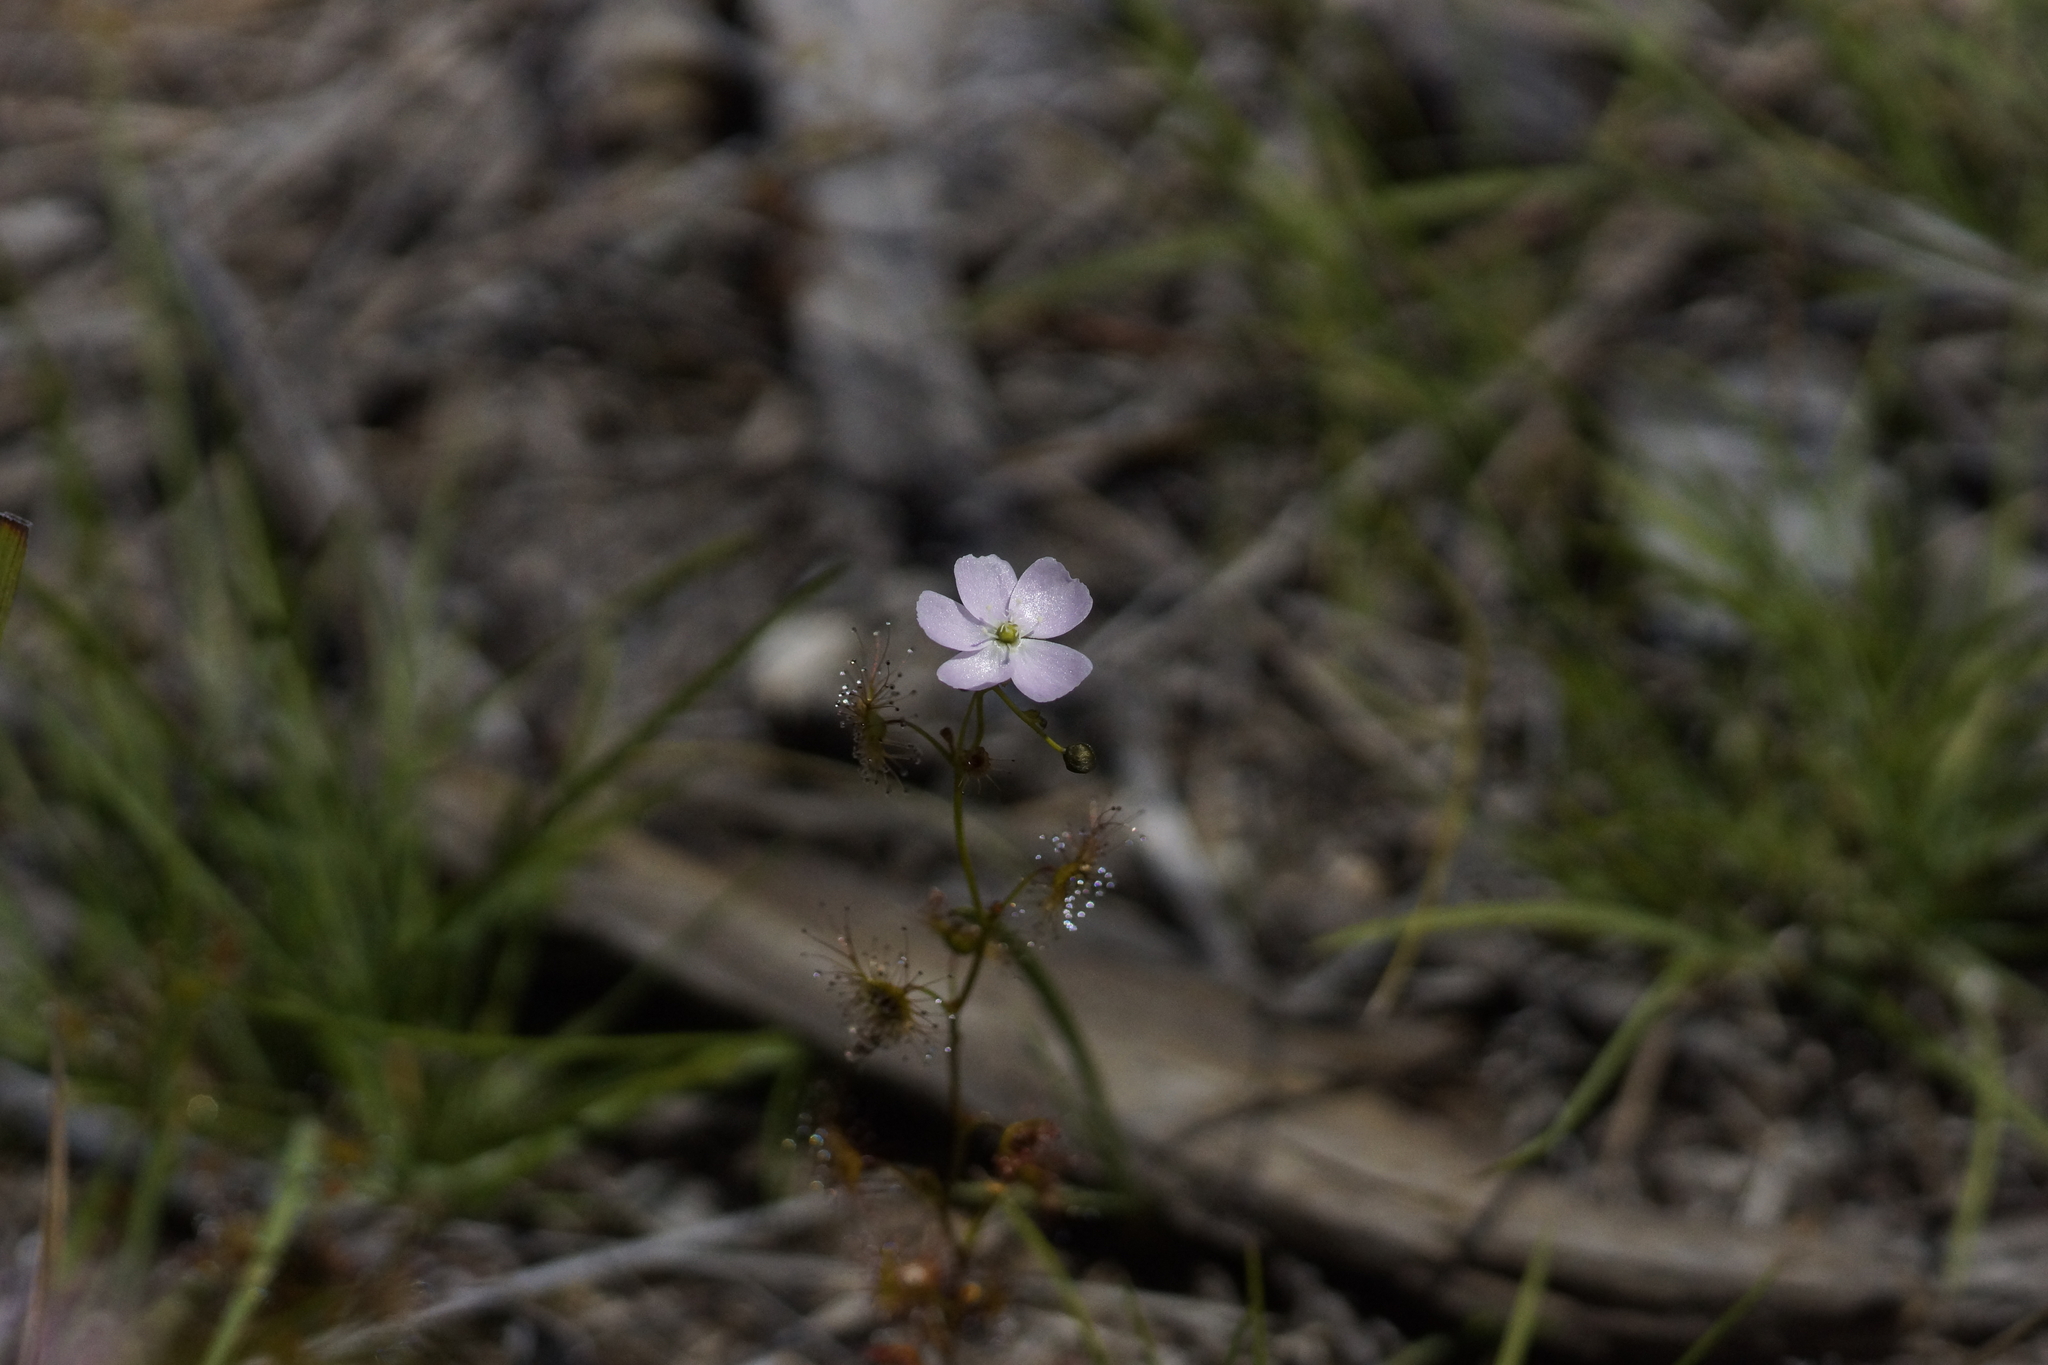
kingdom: Plantae
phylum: Tracheophyta
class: Magnoliopsida
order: Caryophyllales
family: Droseraceae
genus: Drosera
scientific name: Drosera peltata
